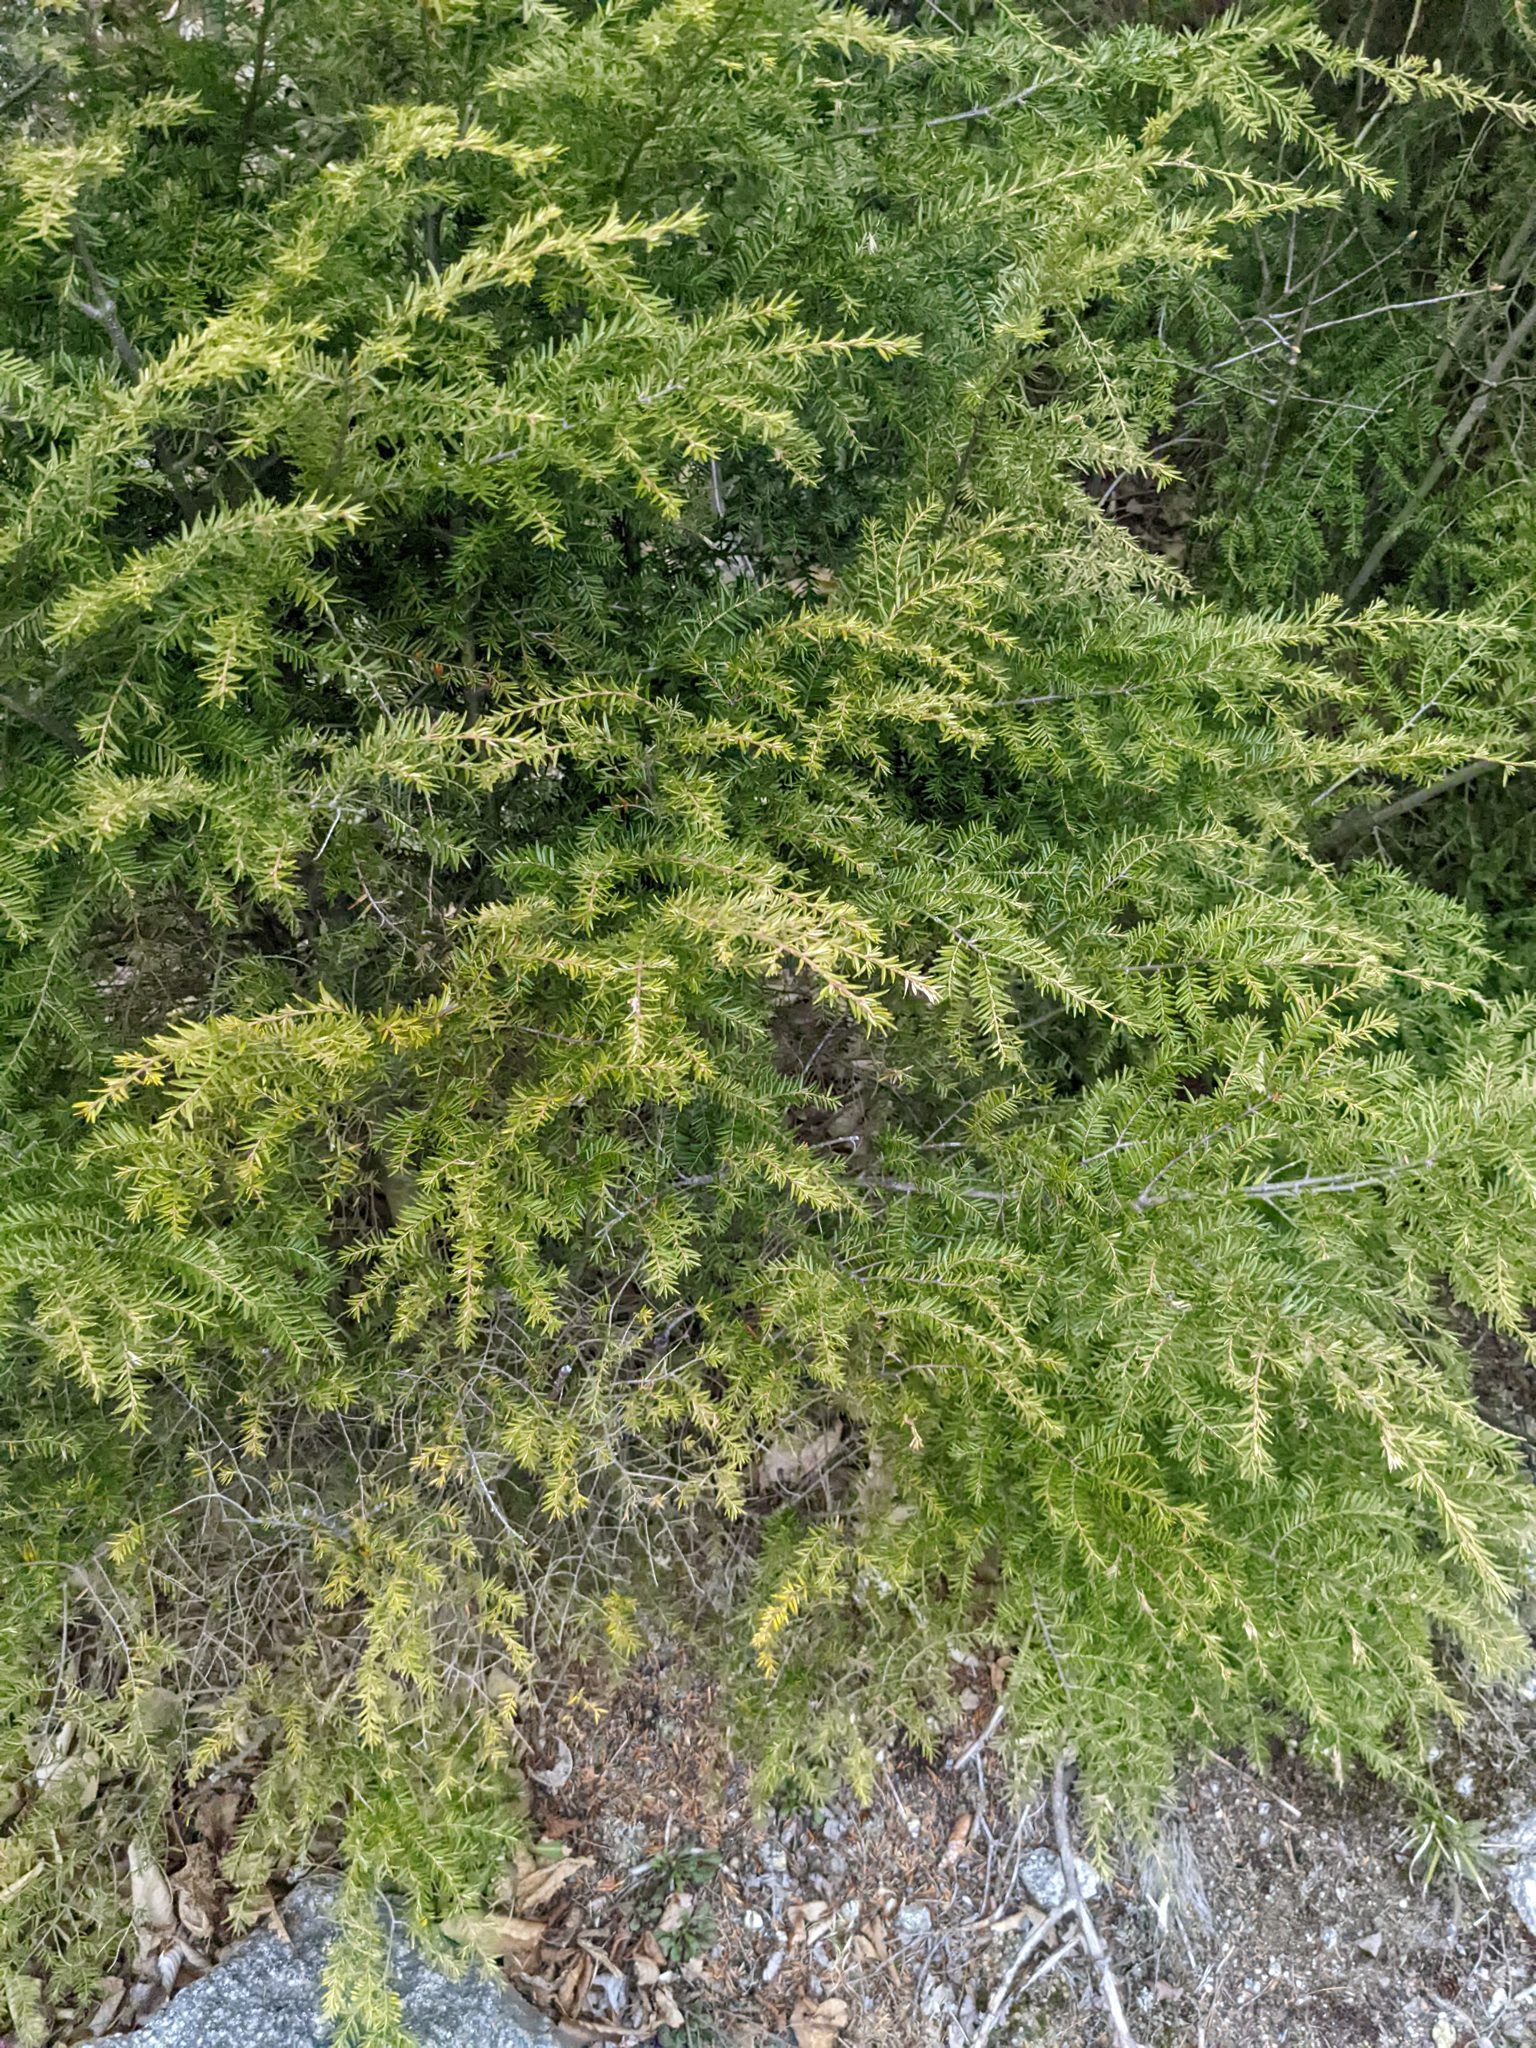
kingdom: Plantae
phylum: Tracheophyta
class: Pinopsida
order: Pinales
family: Pinaceae
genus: Tsuga
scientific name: Tsuga canadensis
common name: Eastern hemlock
